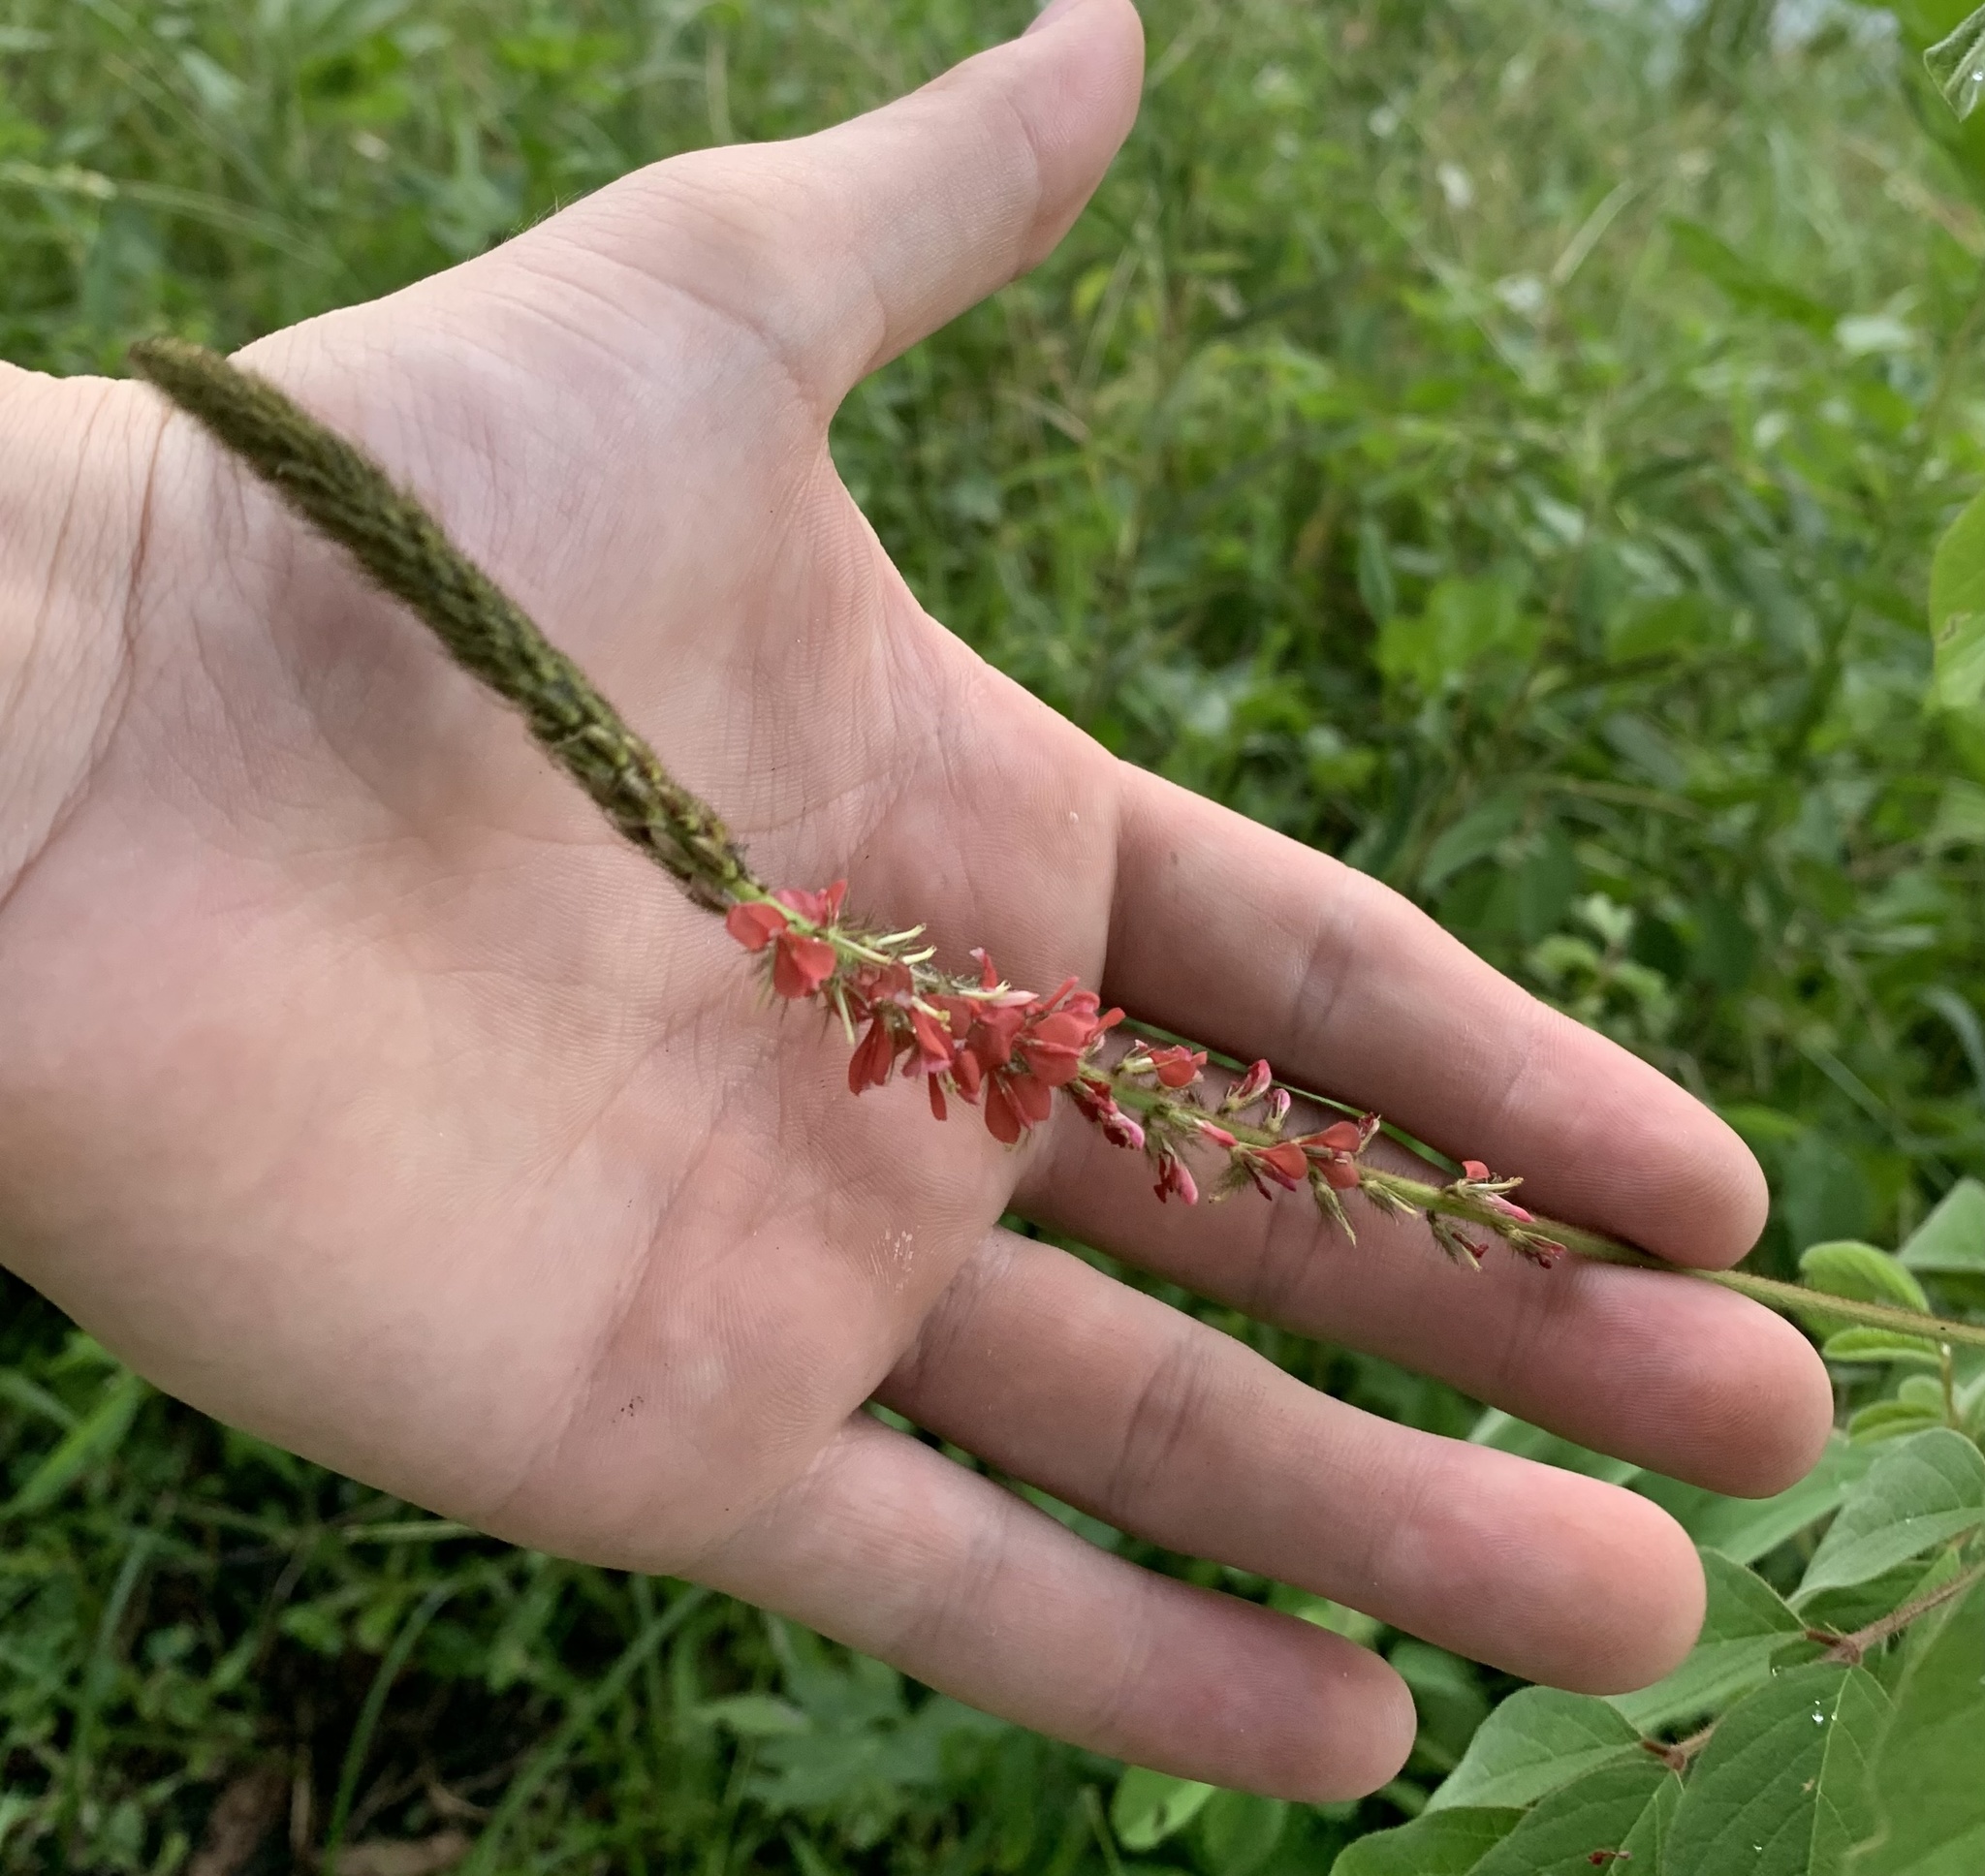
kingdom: Plantae
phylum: Tracheophyta
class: Magnoliopsida
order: Fabales
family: Fabaceae
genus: Indigofera
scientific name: Indigofera hirsuta
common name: Hairy indigo
